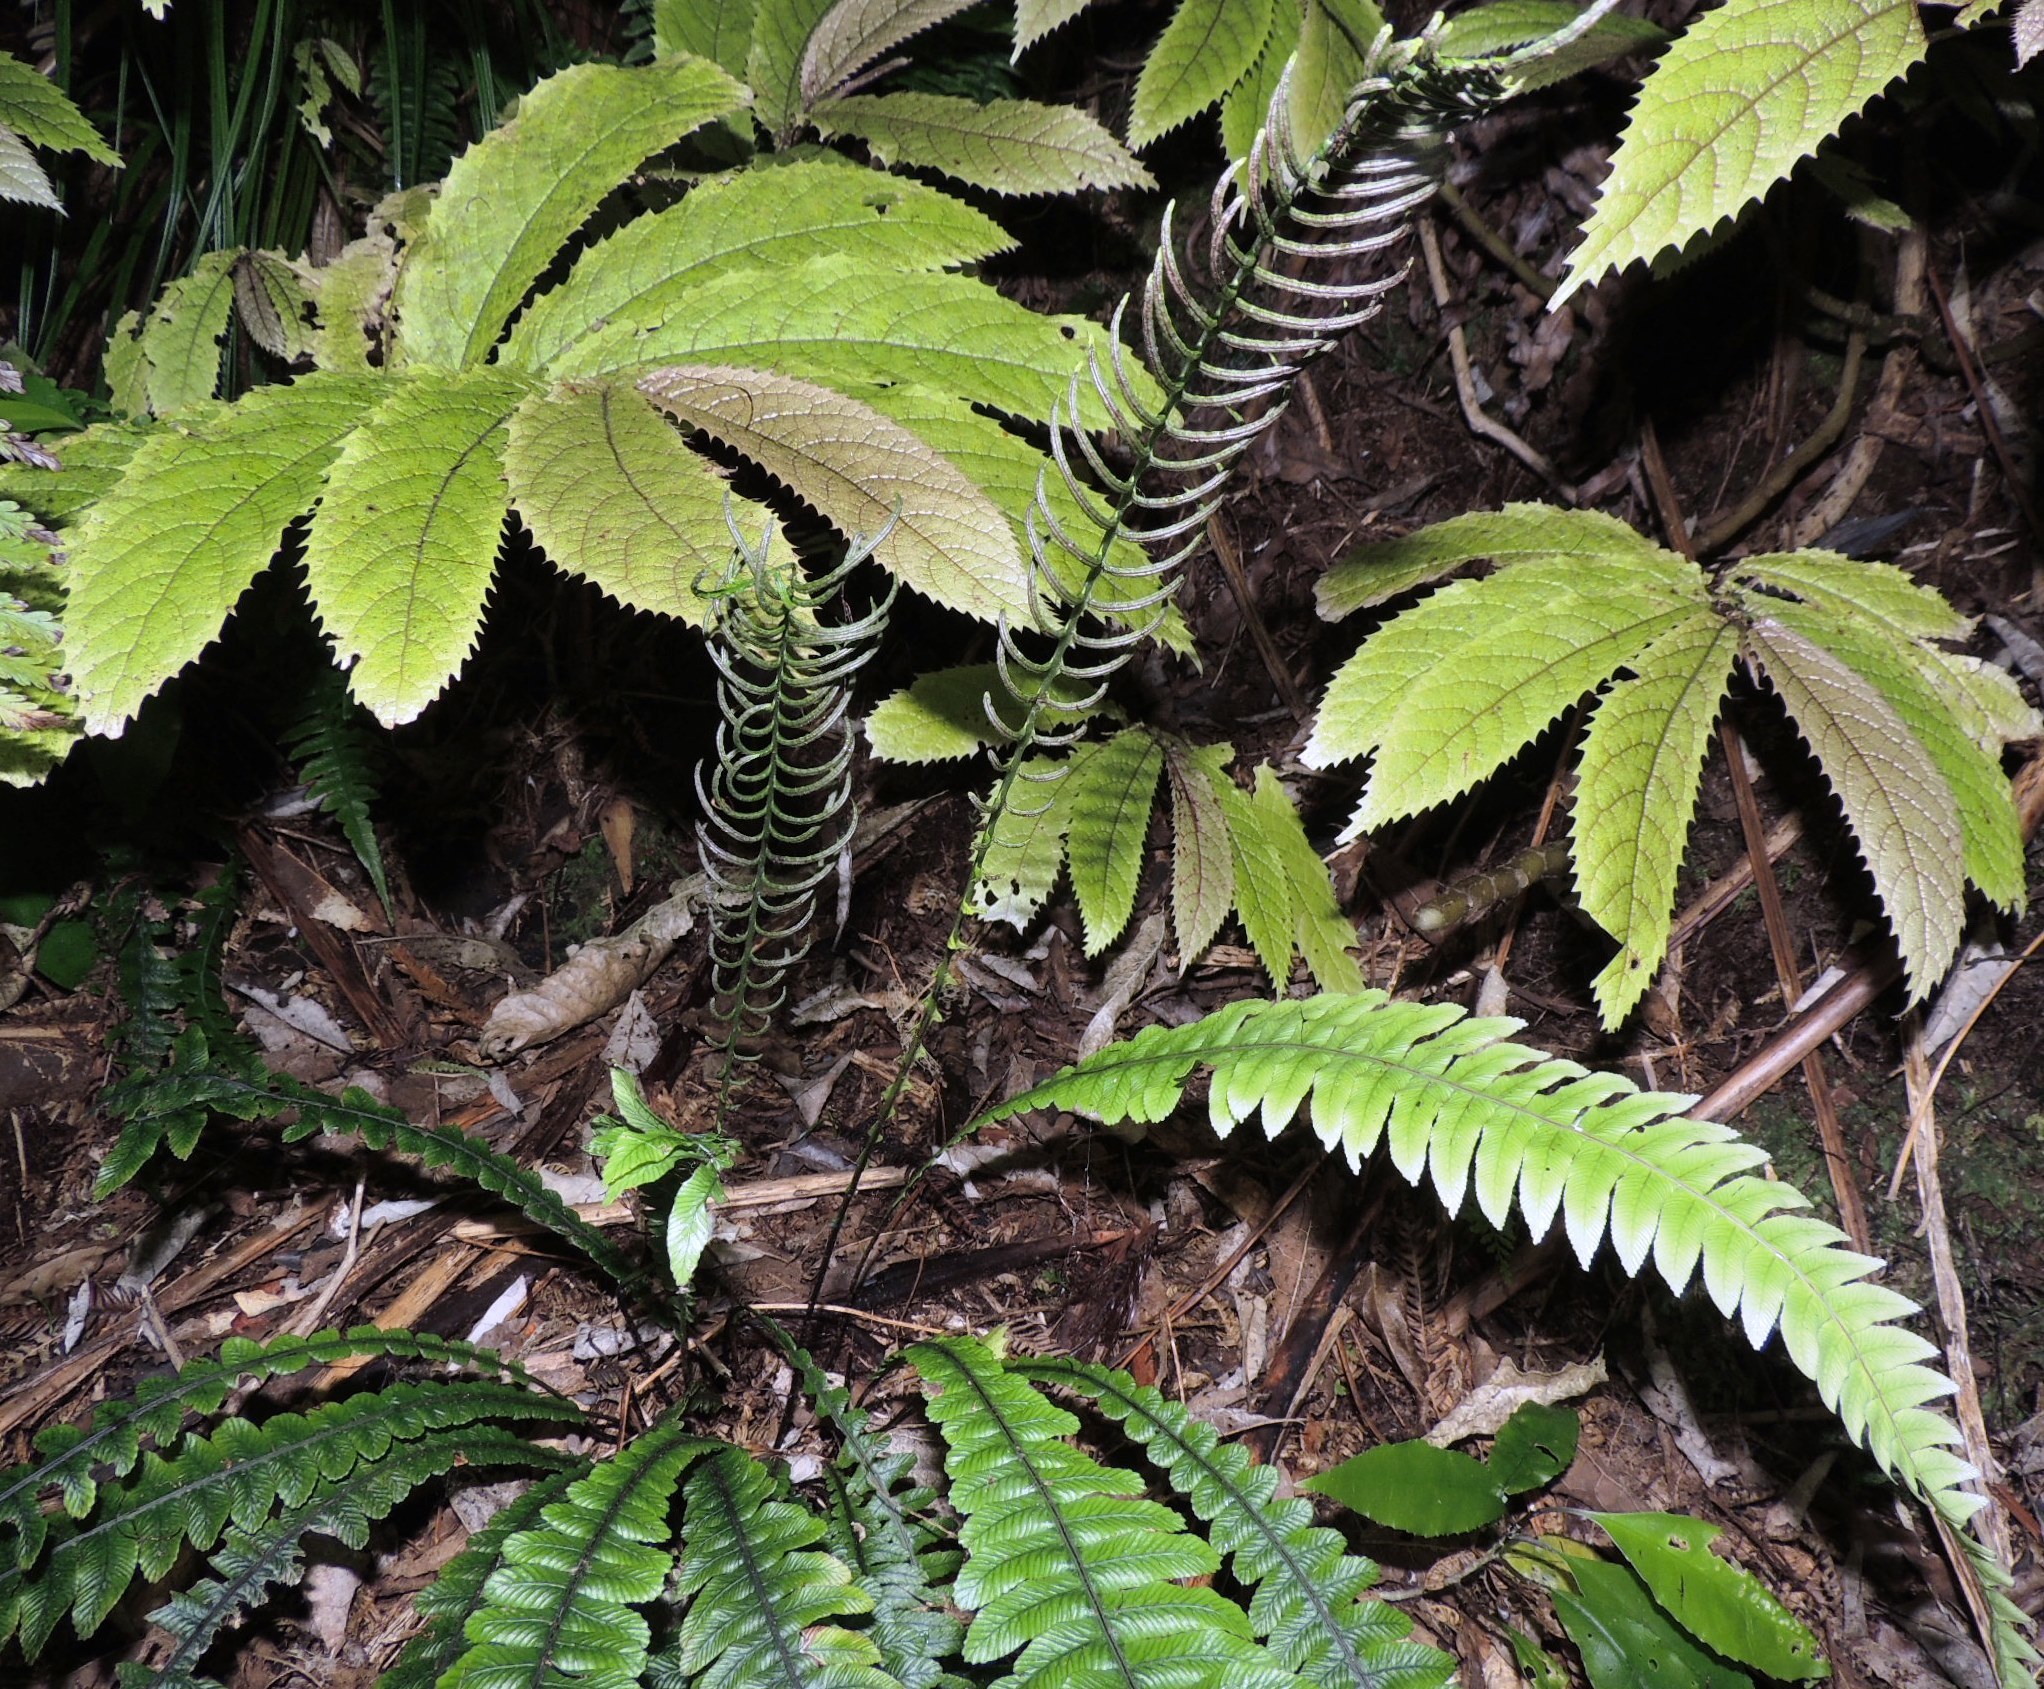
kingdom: Plantae
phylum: Tracheophyta
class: Polypodiopsida
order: Polypodiales
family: Blechnaceae
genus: Austroblechnum
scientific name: Austroblechnum lanceolatum
